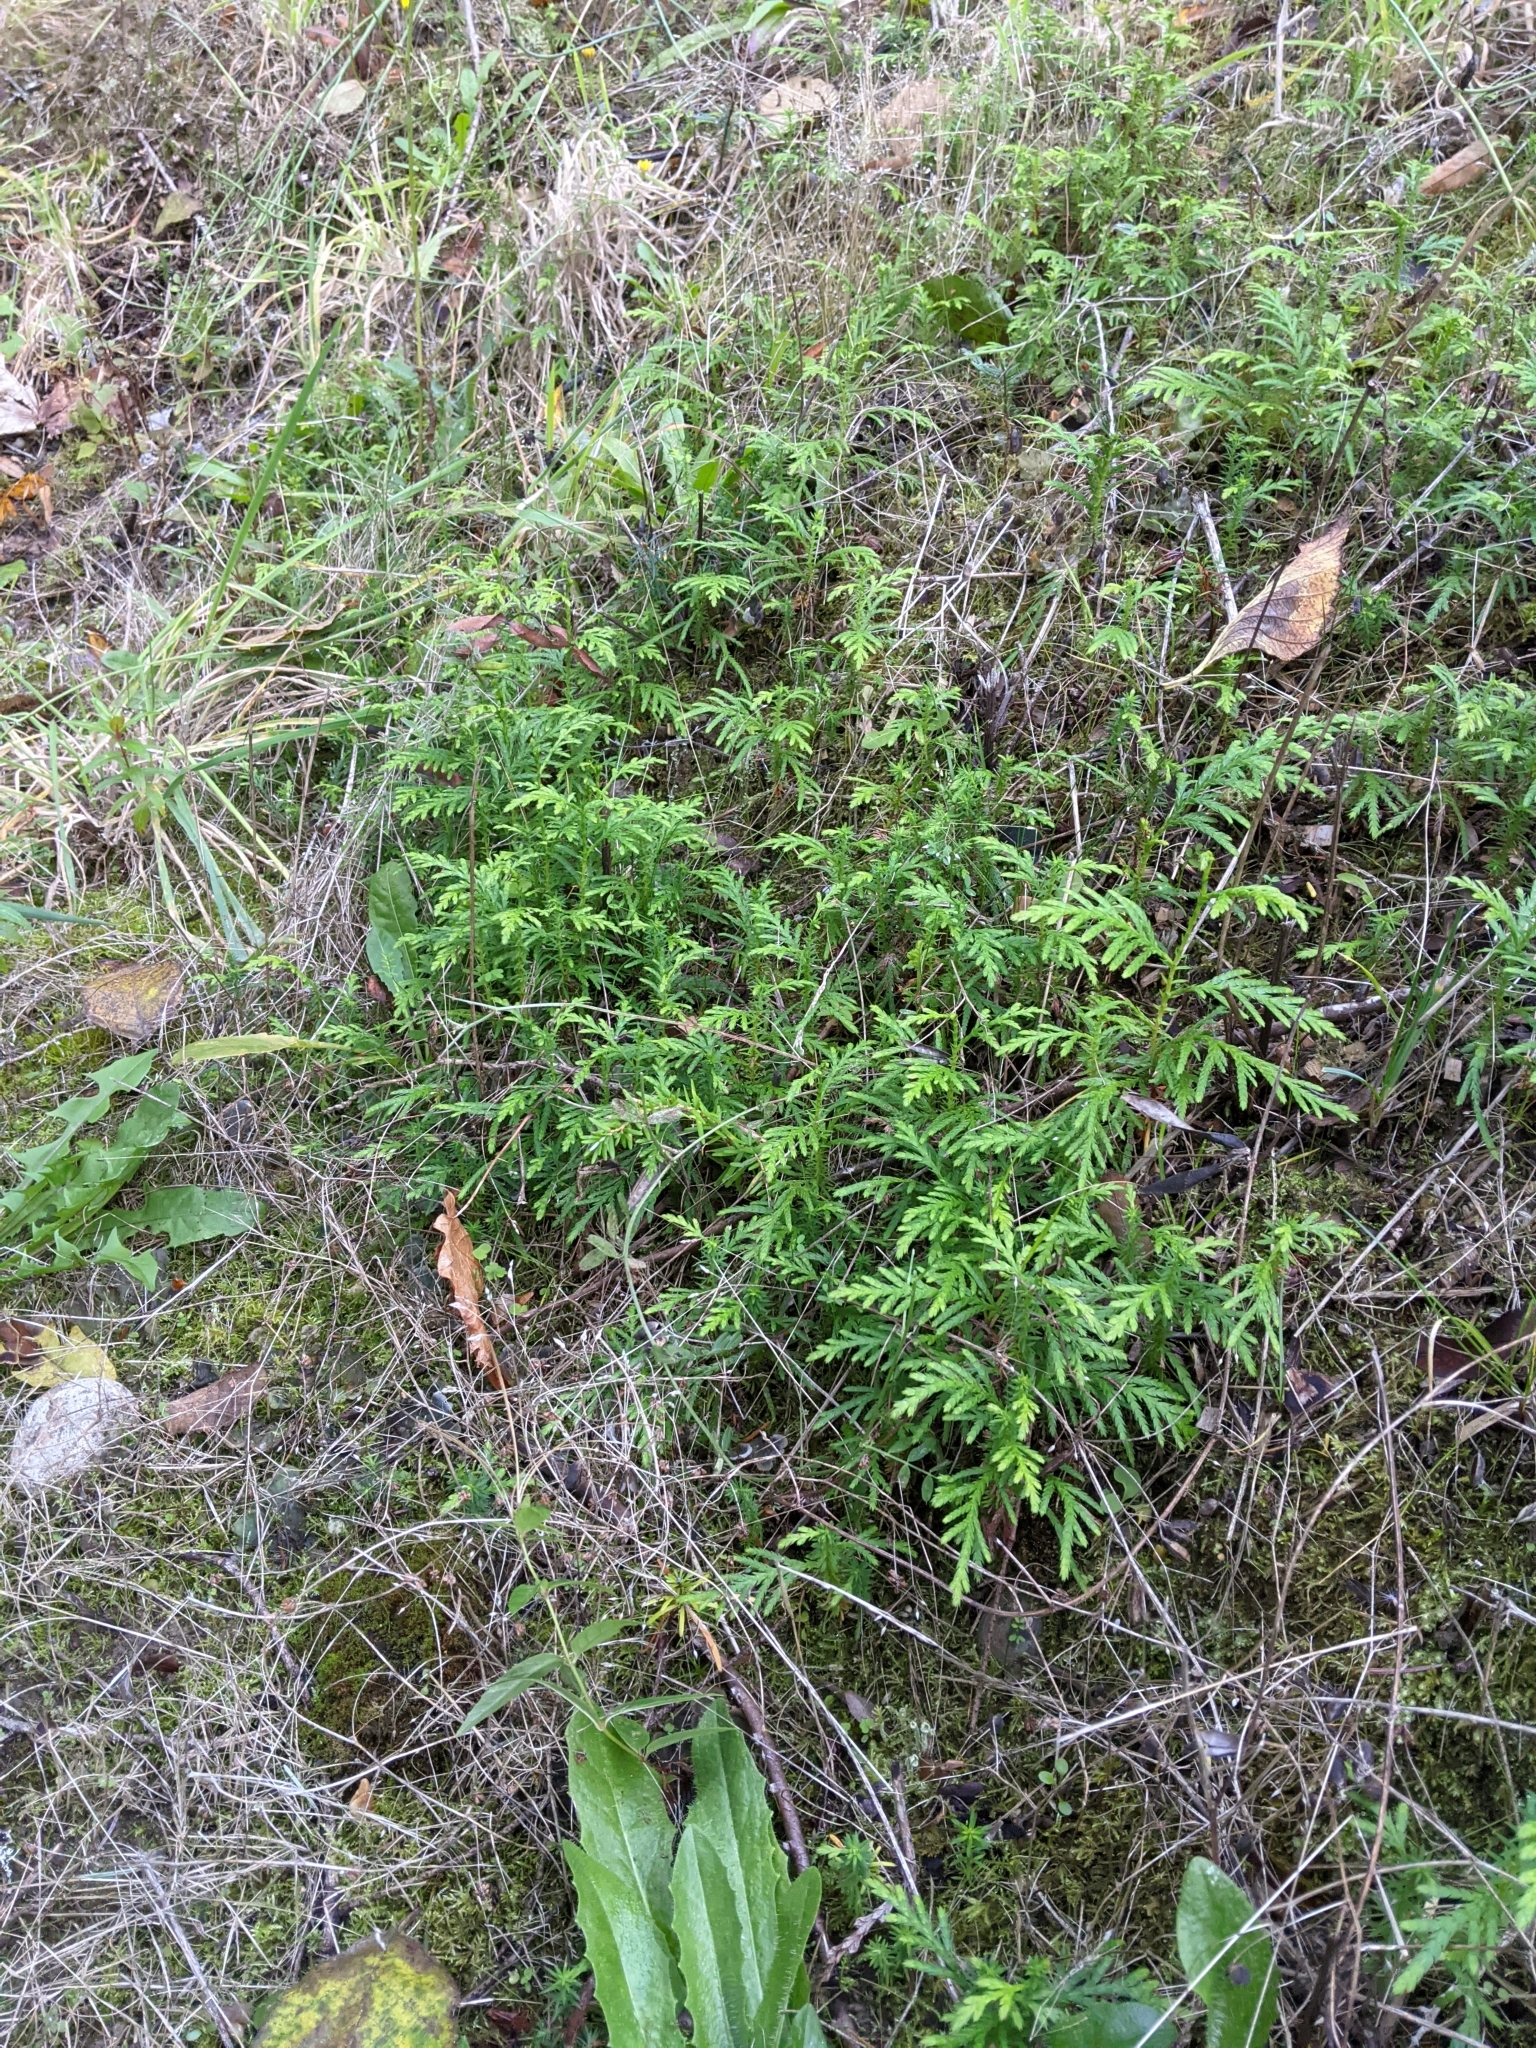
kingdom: Plantae
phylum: Tracheophyta
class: Pinopsida
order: Pinales
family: Cupressaceae
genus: Thuja
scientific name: Thuja plicata
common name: Western red-cedar
